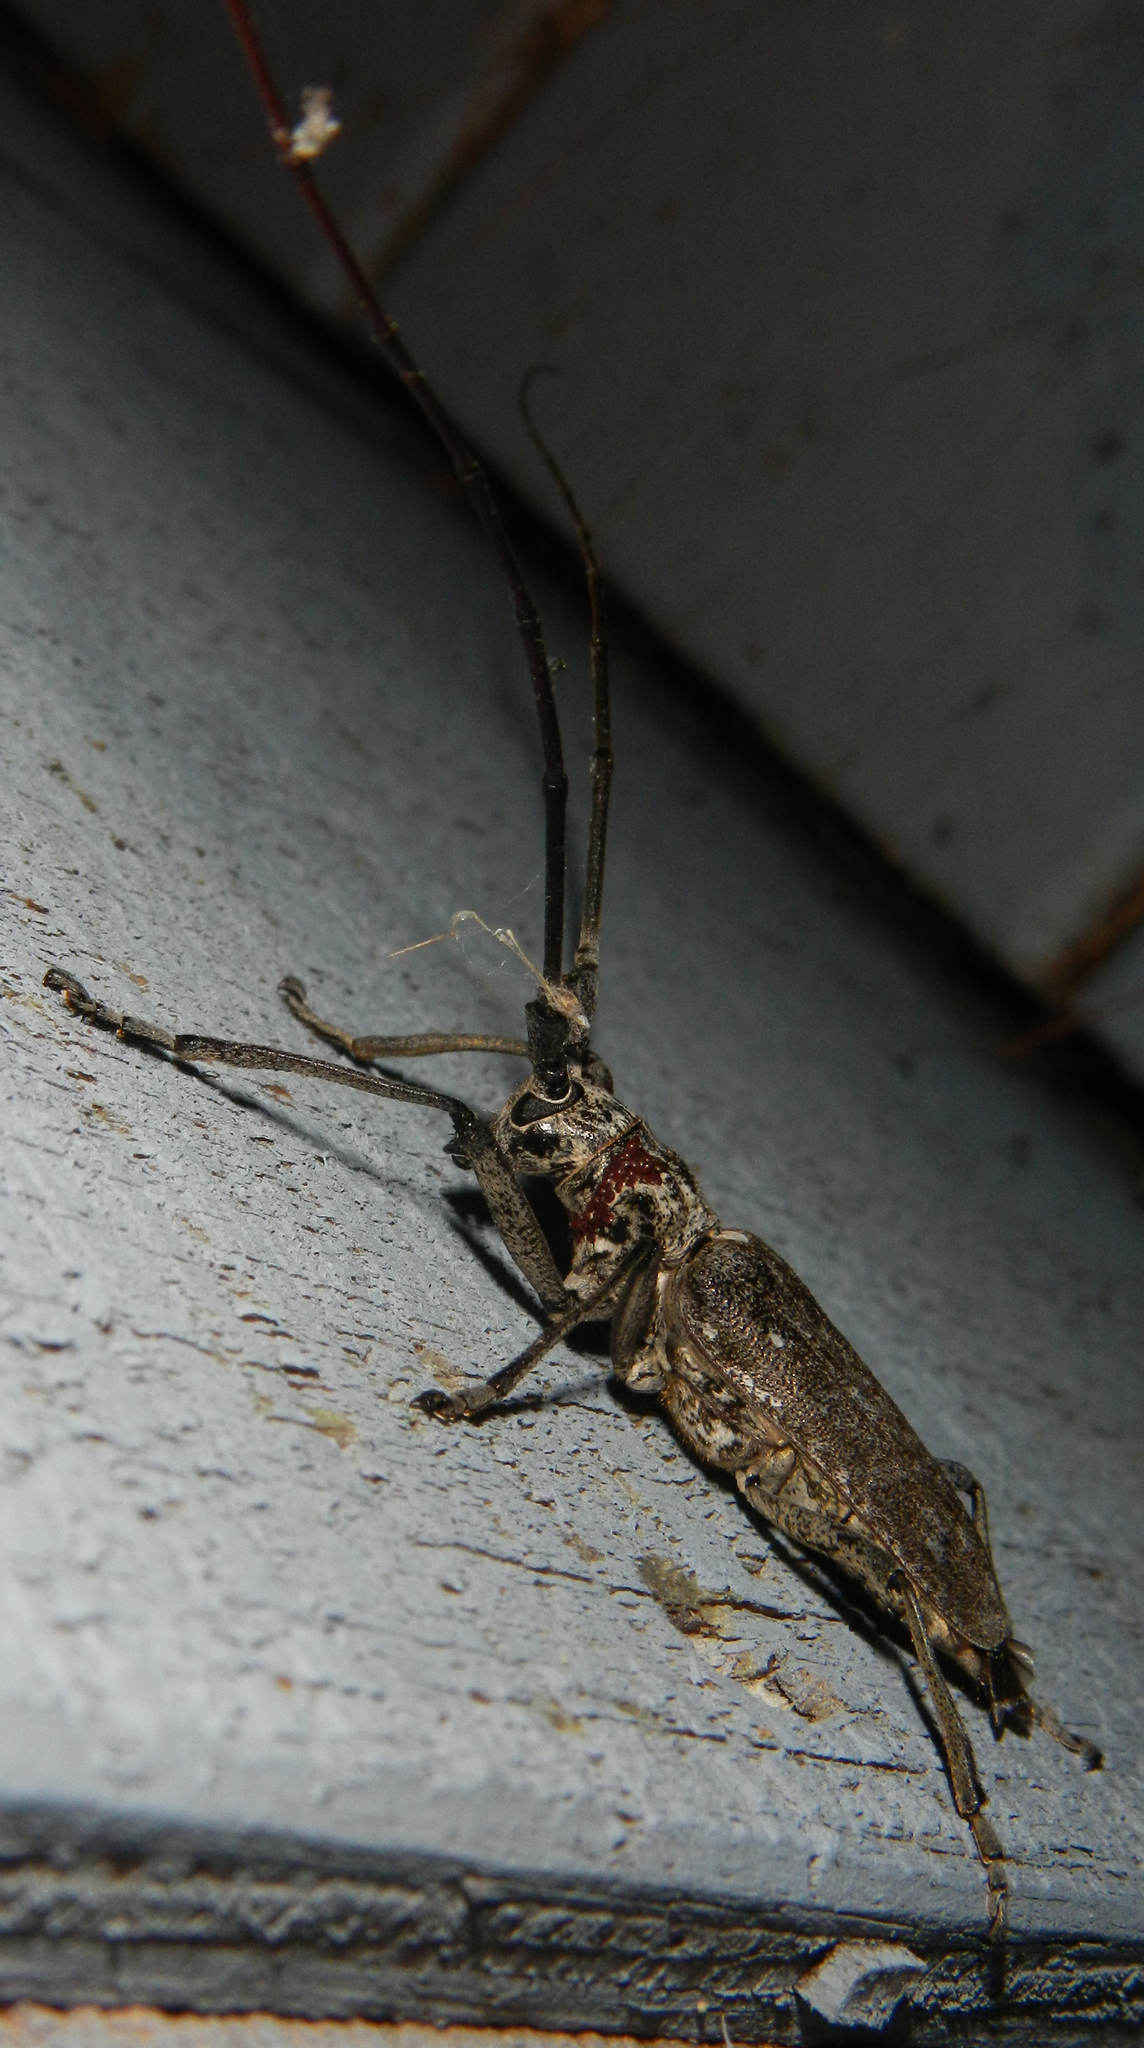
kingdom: Animalia
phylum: Arthropoda
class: Insecta
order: Coleoptera
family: Cerambycidae
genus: Monochamus
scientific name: Monochamus notatus
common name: Northeastern pine sawyer beetle
